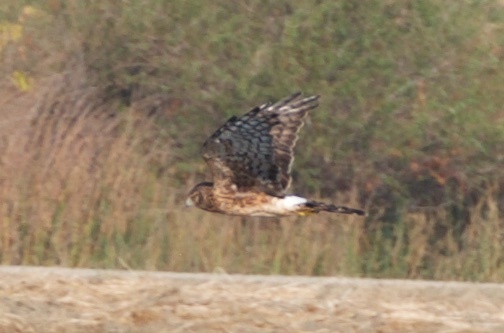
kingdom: Animalia
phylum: Chordata
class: Aves
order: Accipitriformes
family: Accipitridae
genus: Circus
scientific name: Circus cyaneus
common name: Hen harrier
